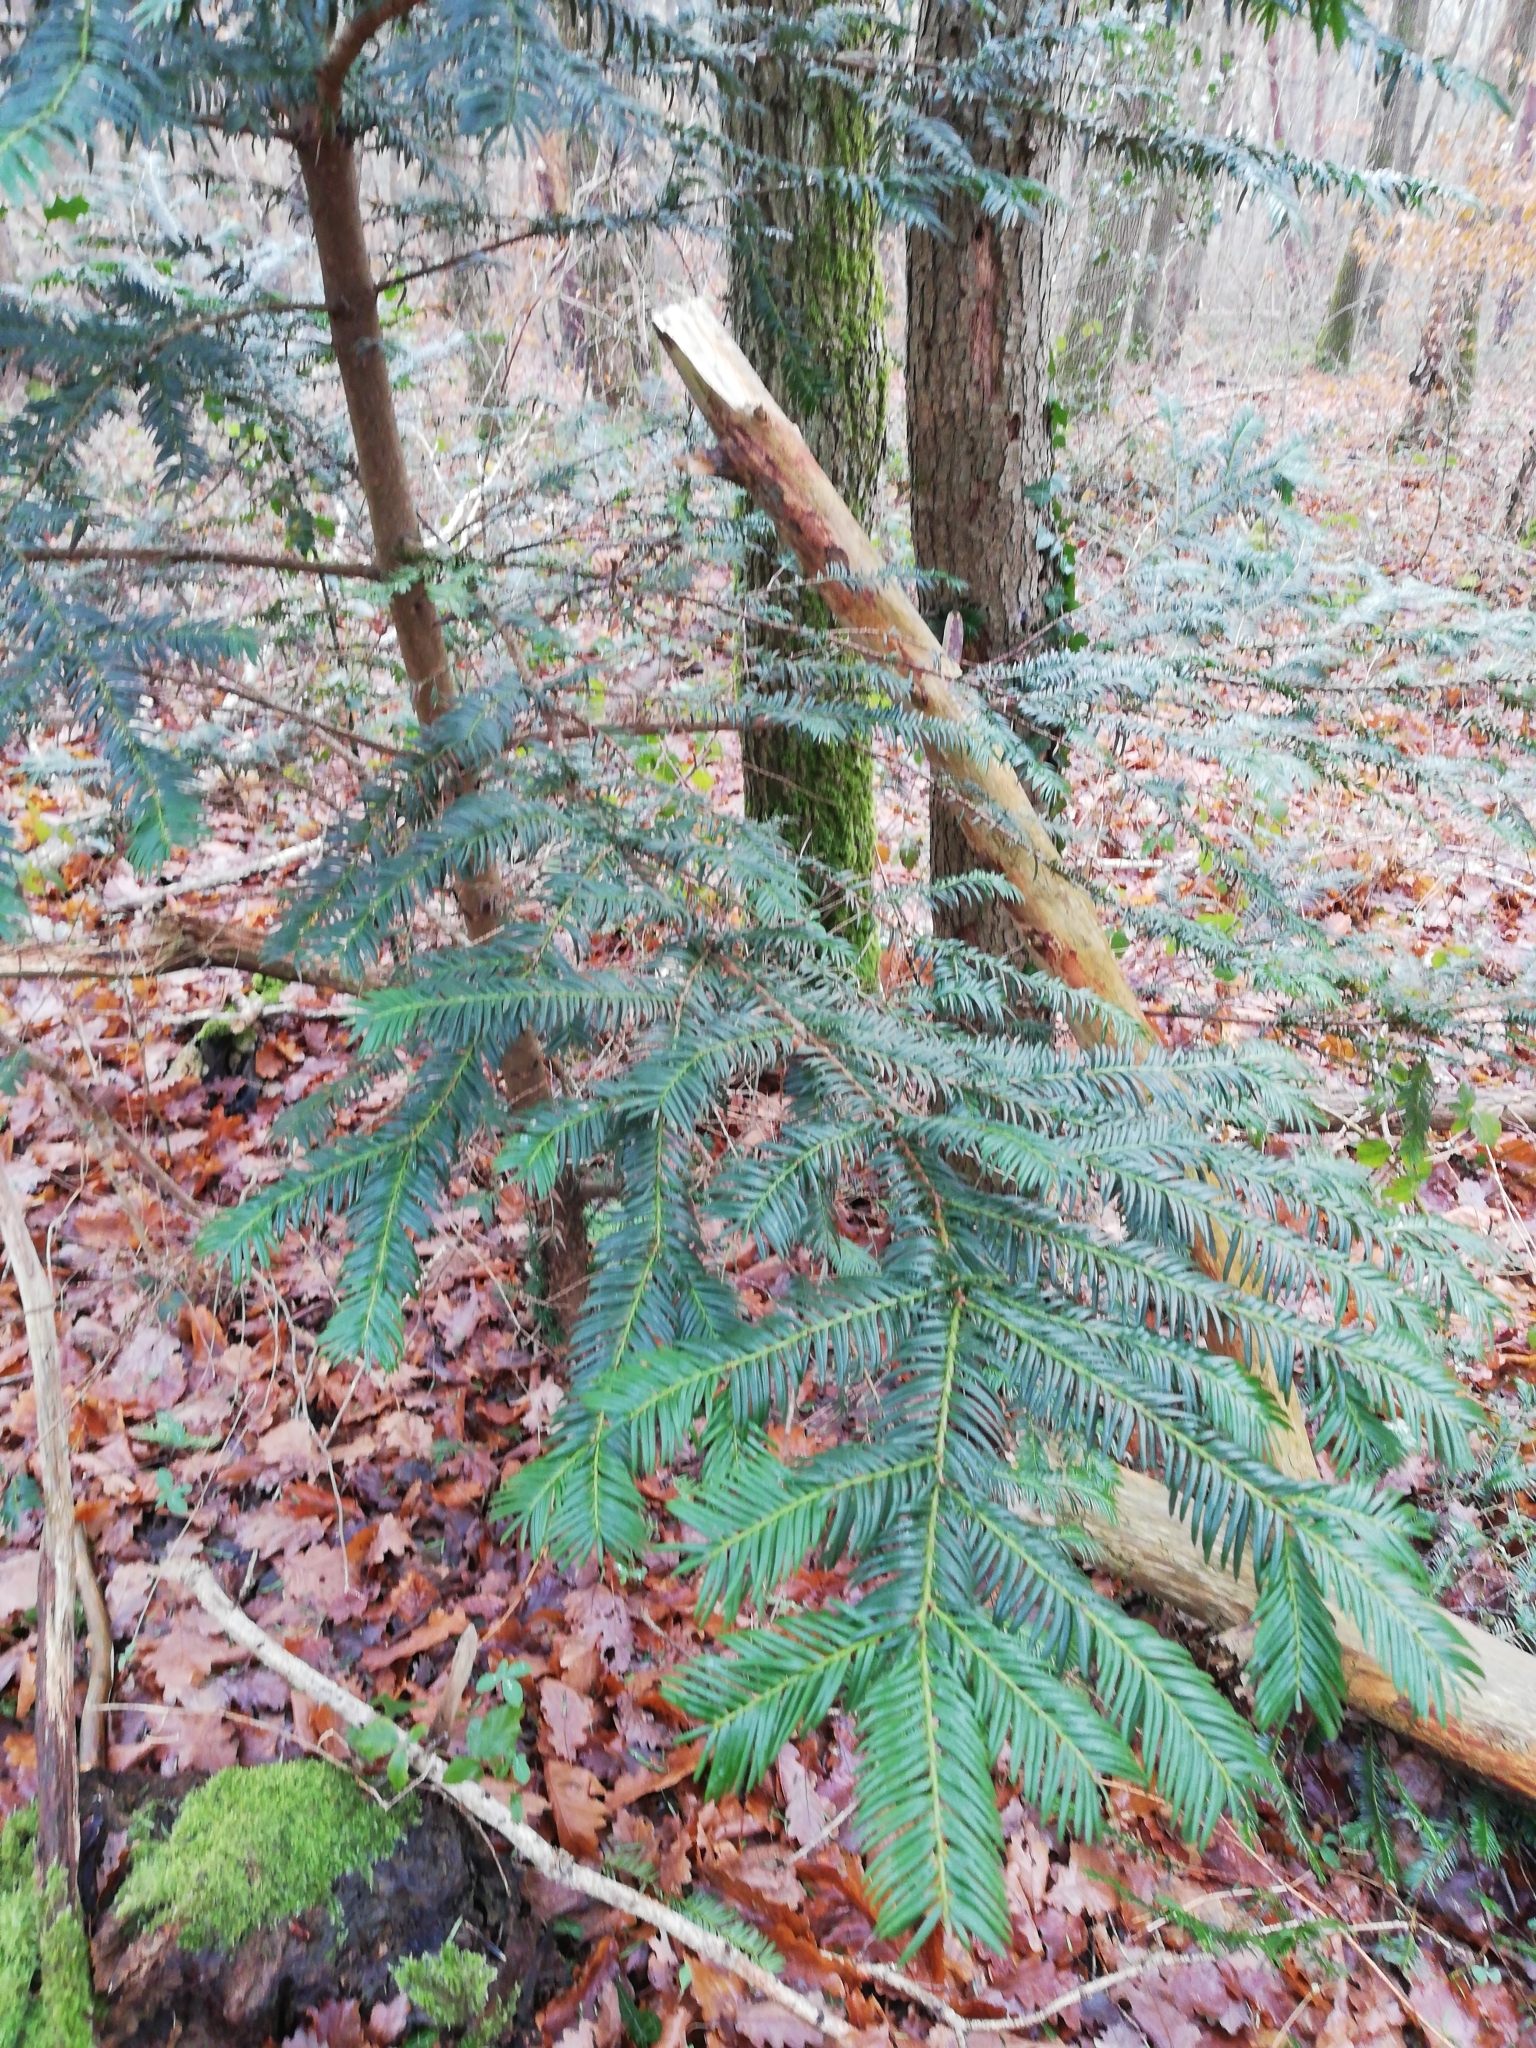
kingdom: Plantae
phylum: Tracheophyta
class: Pinopsida
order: Pinales
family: Taxaceae
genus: Taxus
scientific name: Taxus baccata
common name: Yew
